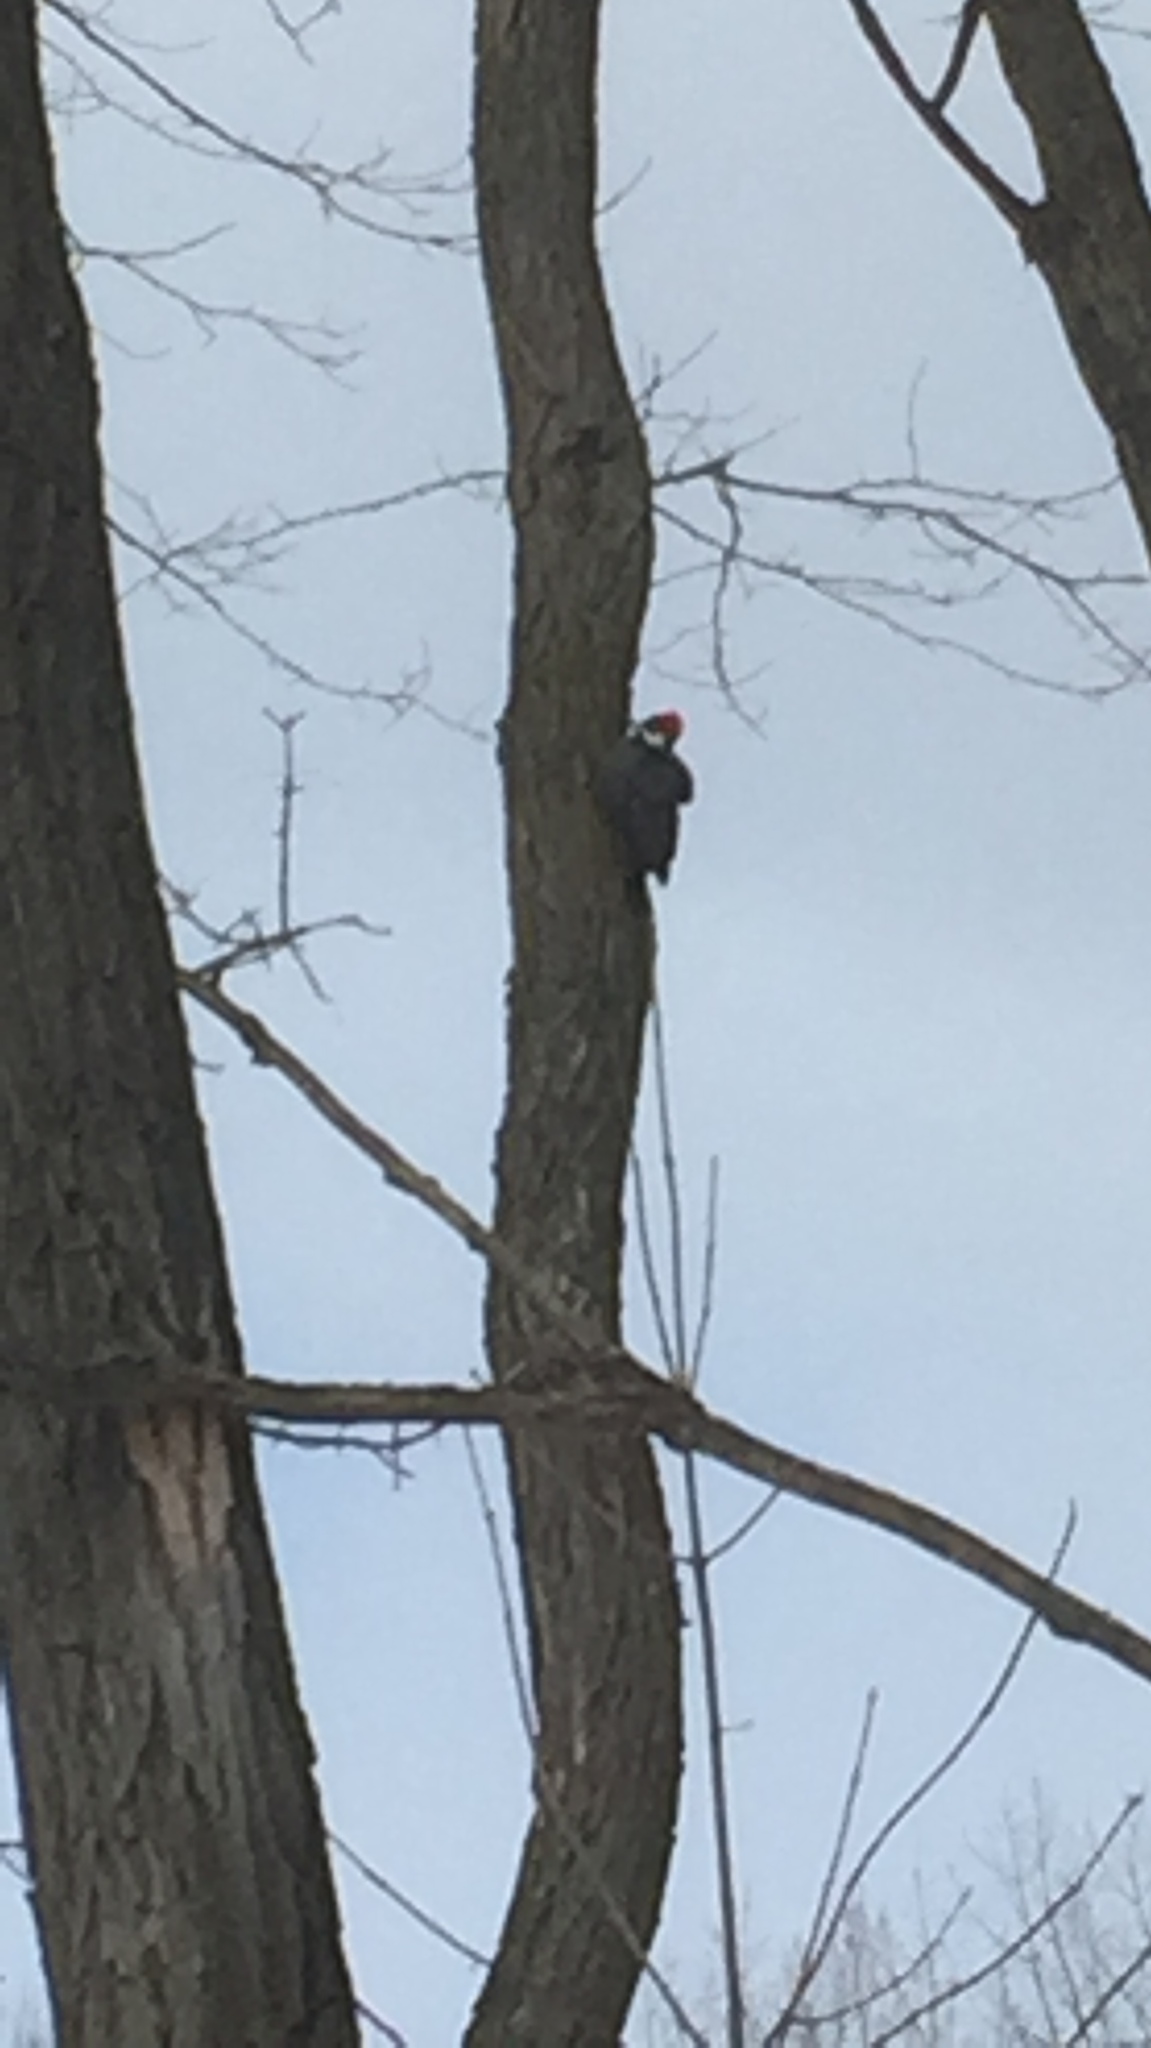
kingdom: Animalia
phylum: Chordata
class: Aves
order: Piciformes
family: Picidae
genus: Dryocopus
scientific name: Dryocopus pileatus
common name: Pileated woodpecker
